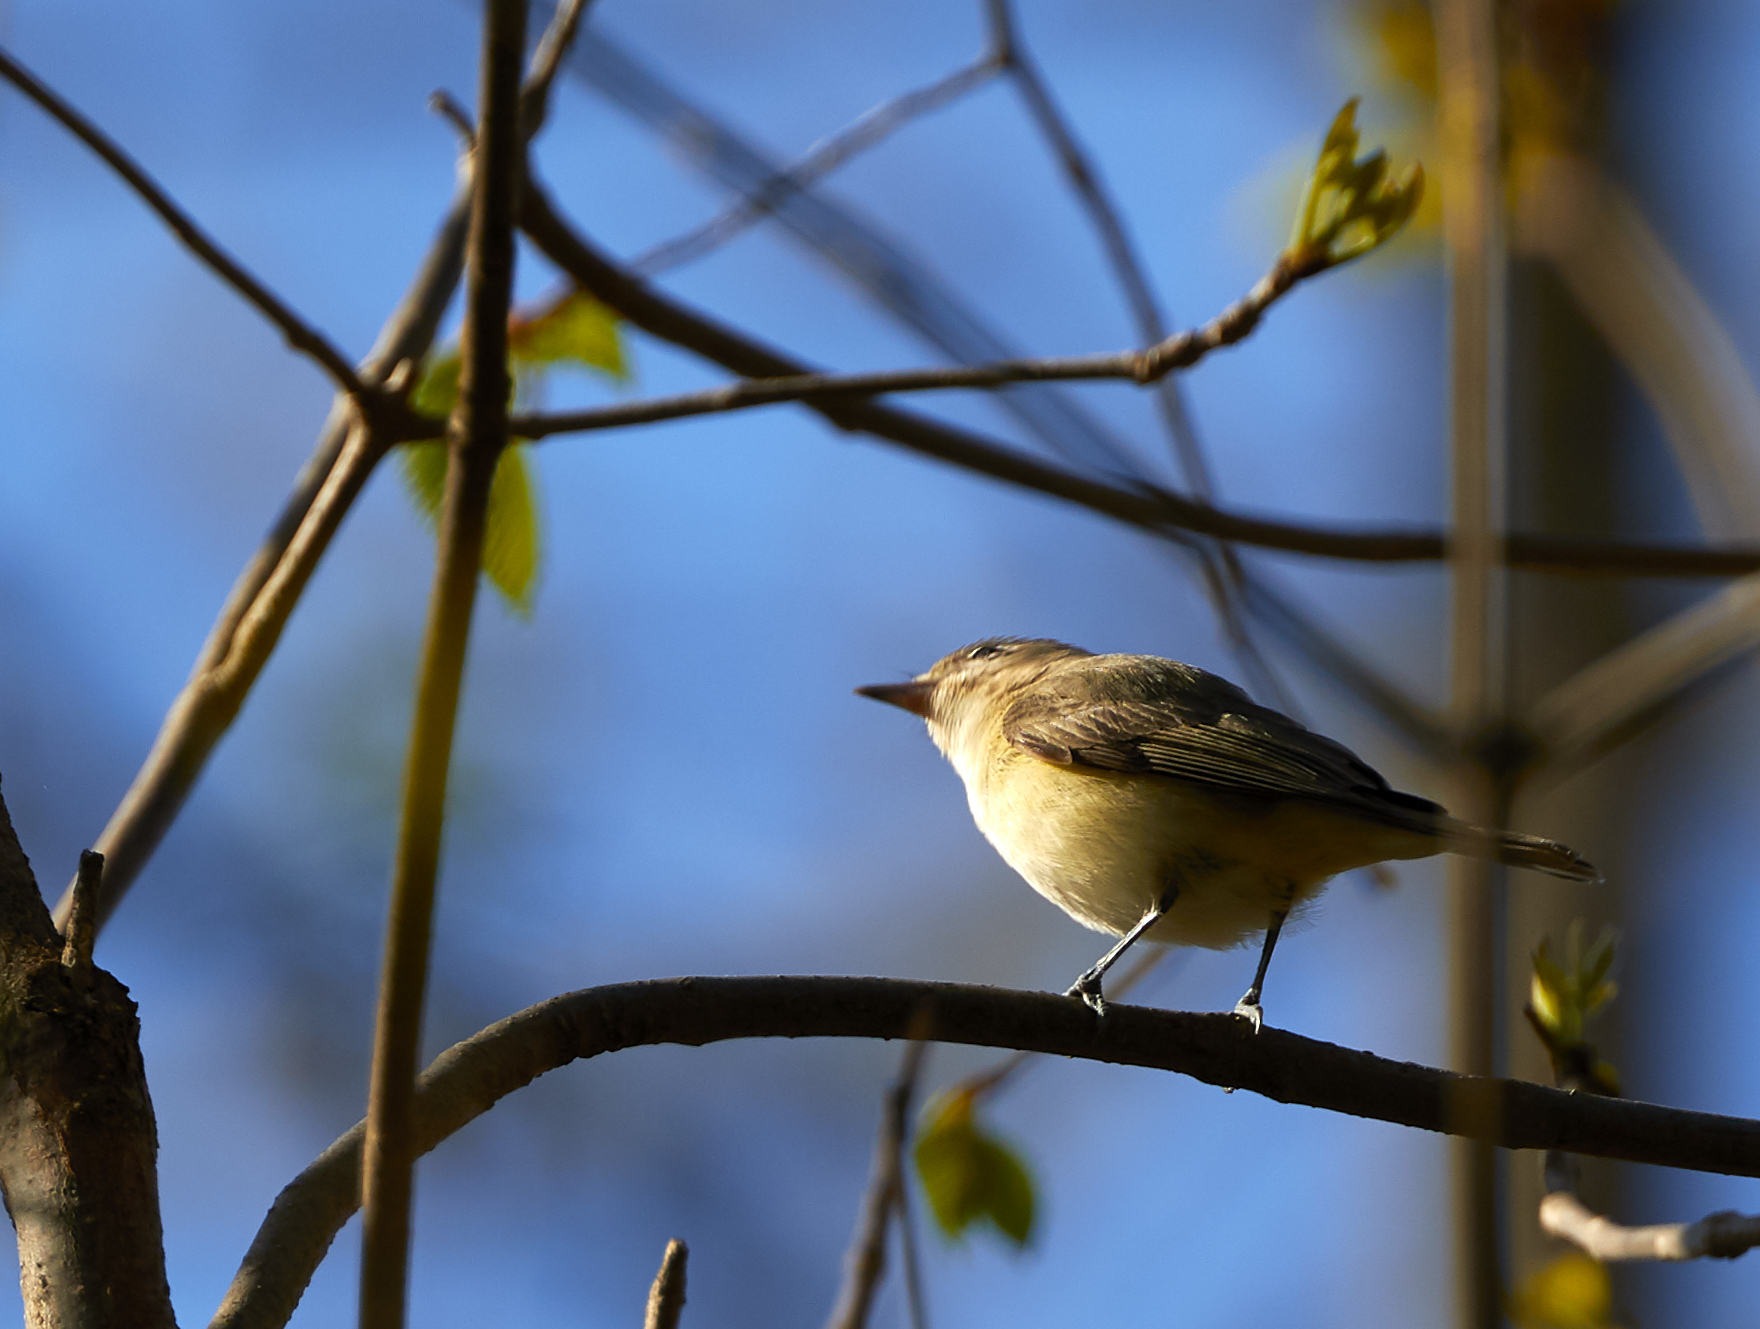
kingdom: Animalia
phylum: Chordata
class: Aves
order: Passeriformes
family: Vireonidae
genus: Vireo
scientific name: Vireo gilvus
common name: Warbling vireo
